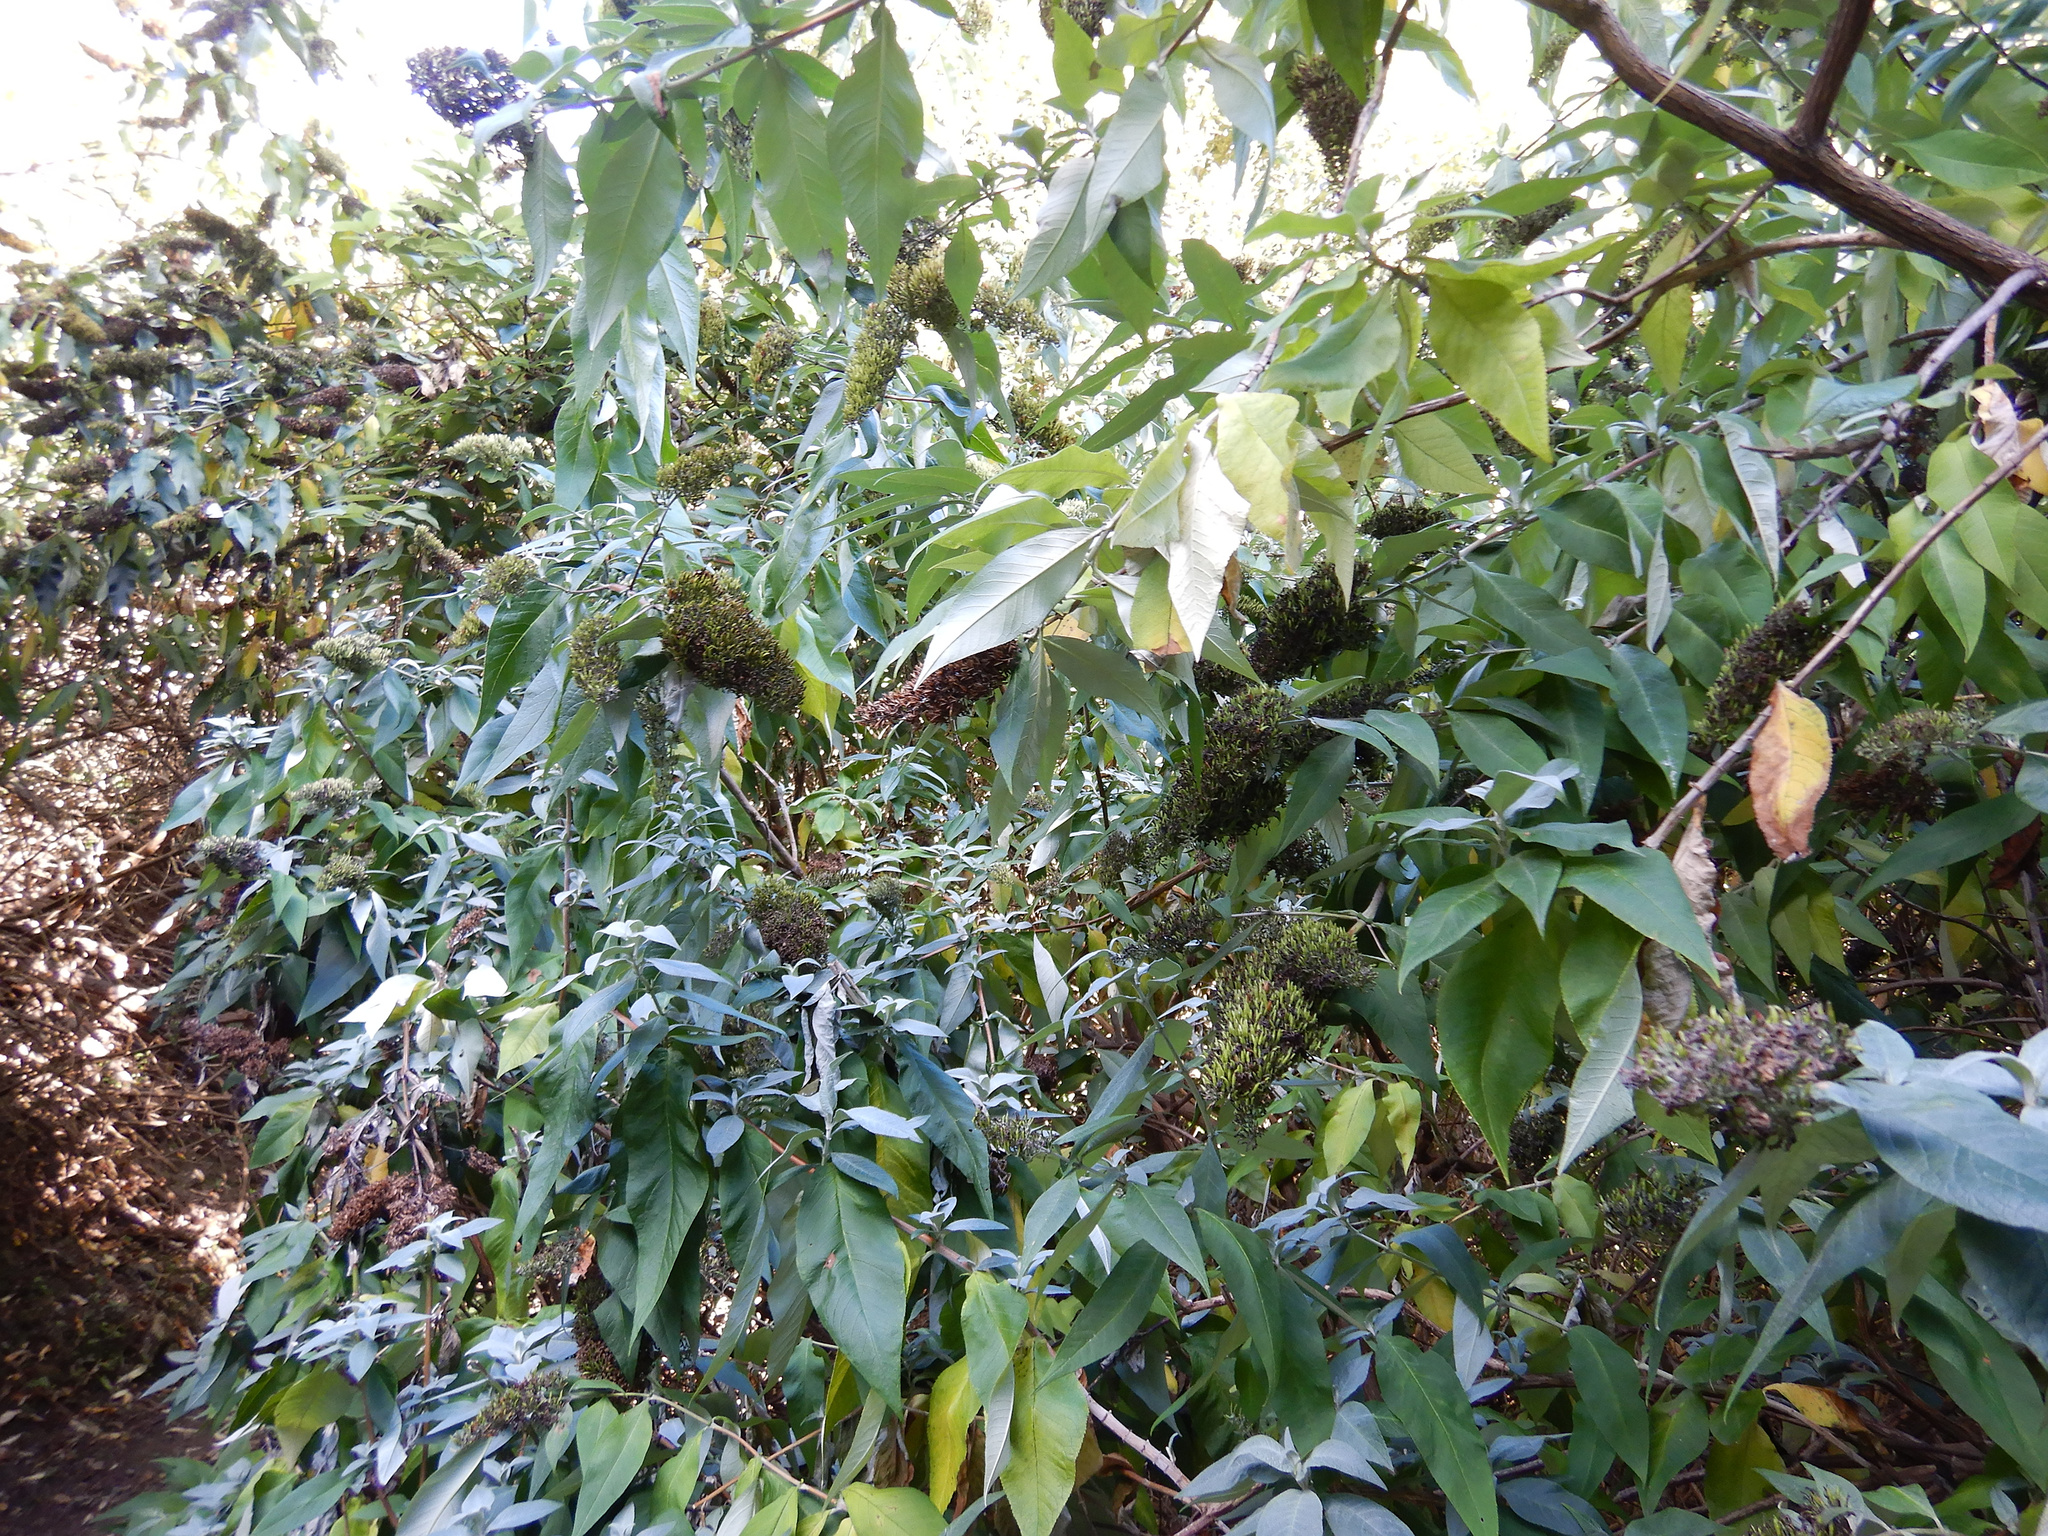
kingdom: Plantae
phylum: Tracheophyta
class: Magnoliopsida
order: Lamiales
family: Scrophulariaceae
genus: Buddleja
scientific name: Buddleja davidii
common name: Butterfly-bush
